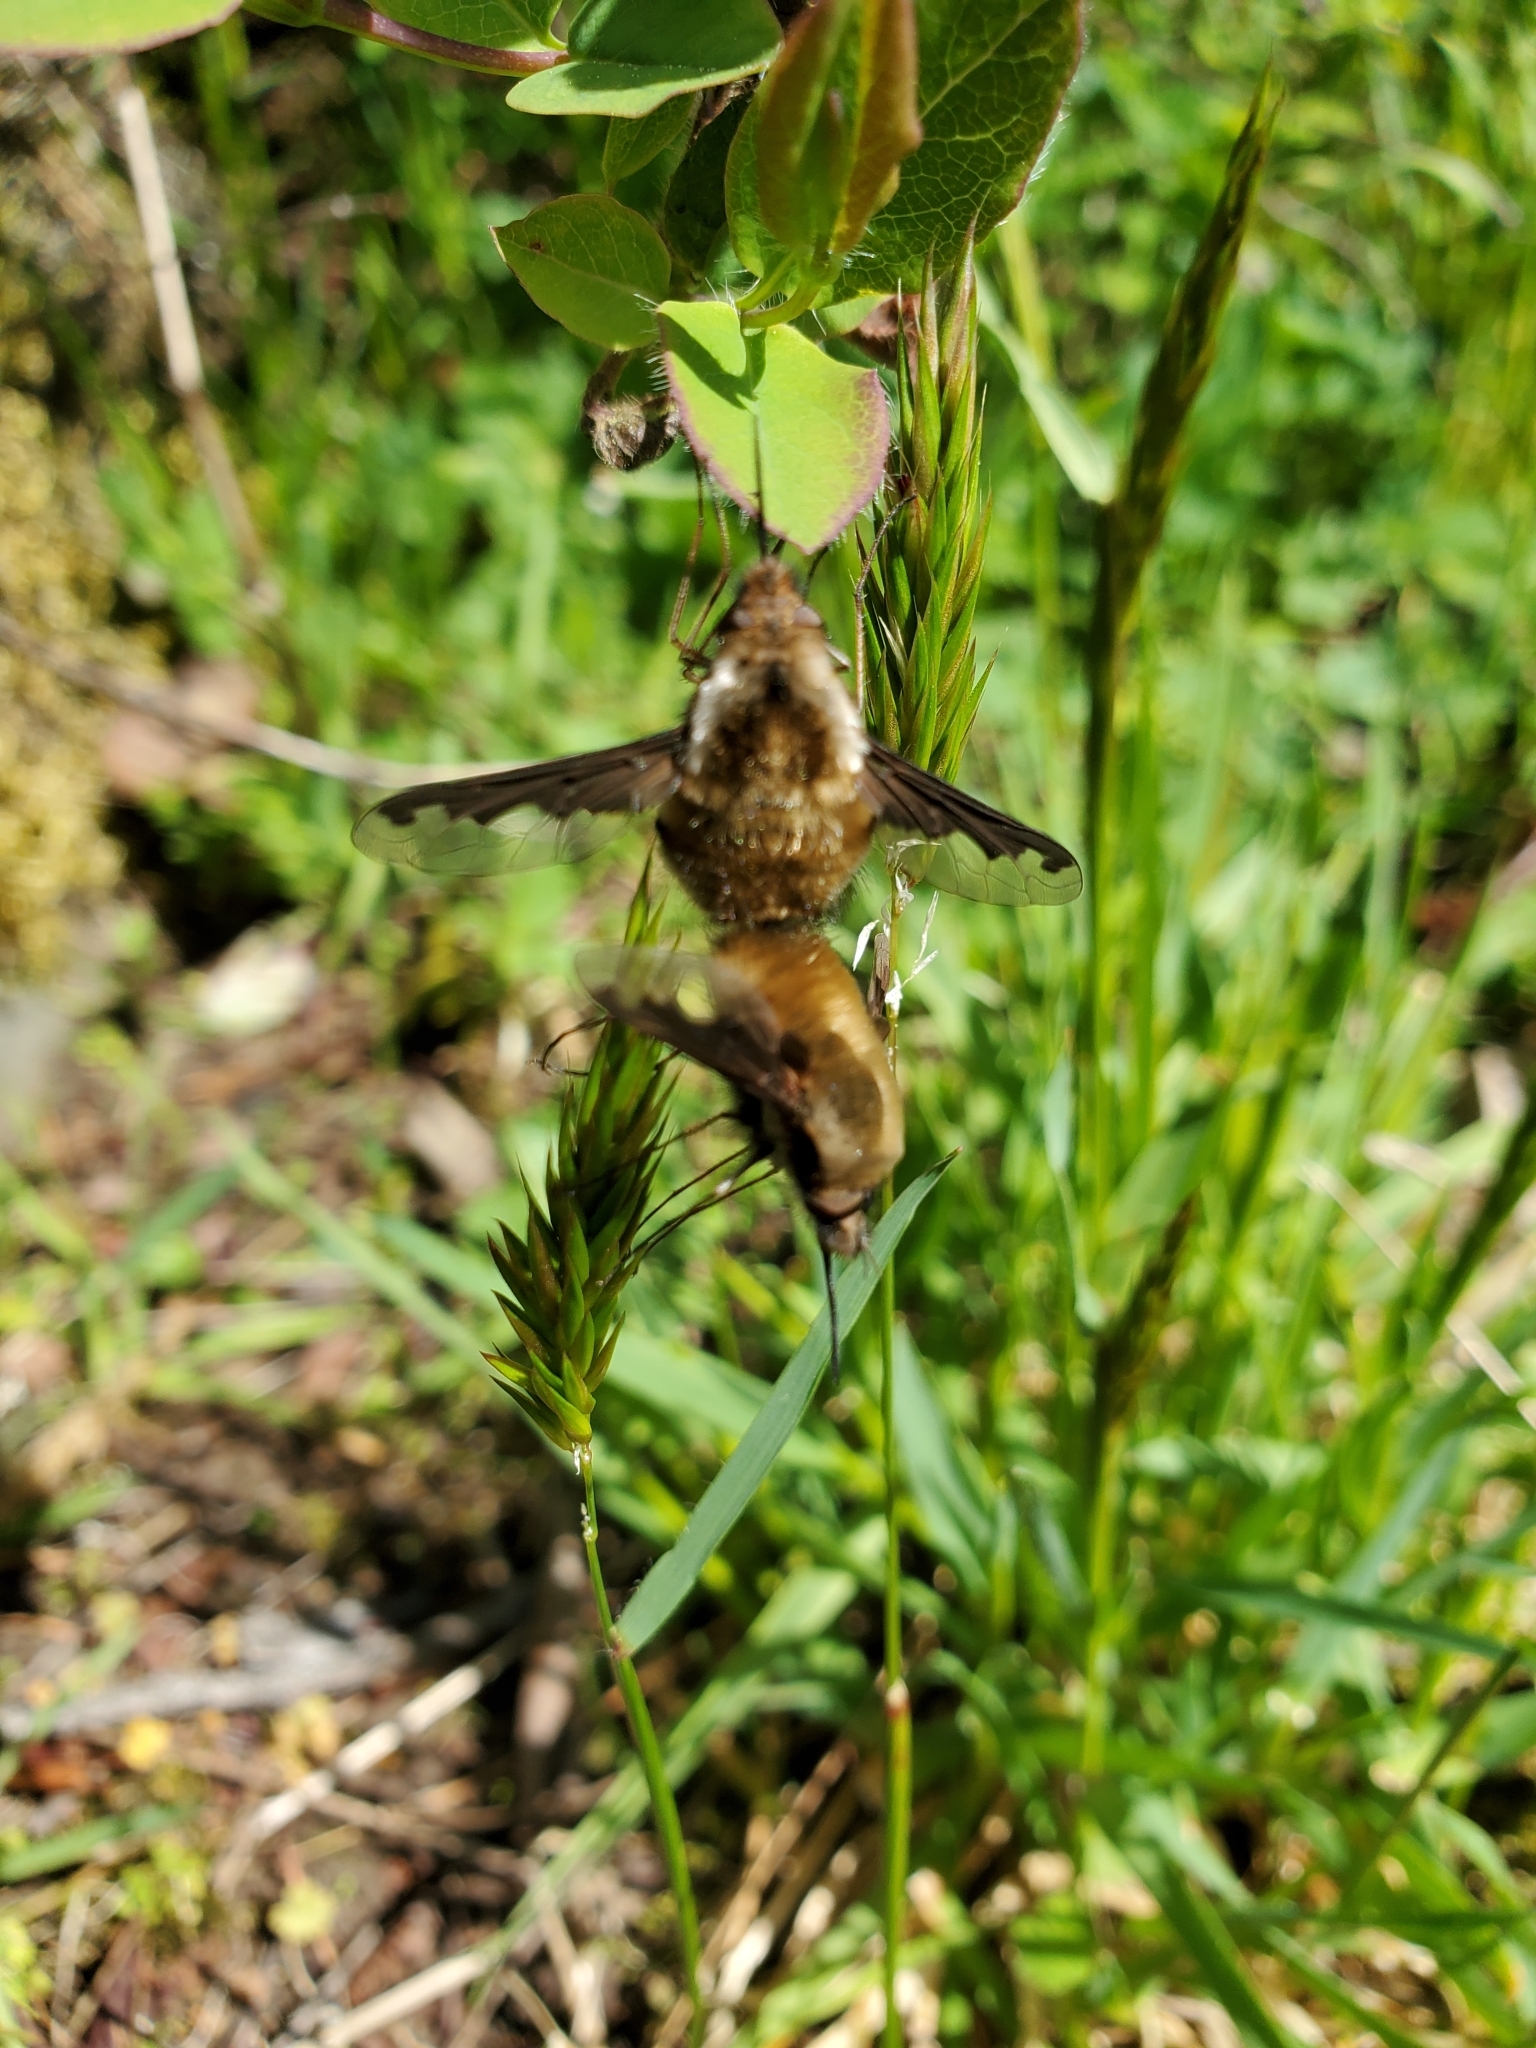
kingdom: Animalia
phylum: Arthropoda
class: Insecta
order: Diptera
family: Bombyliidae
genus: Bombylius
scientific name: Bombylius major
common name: Bee fly
